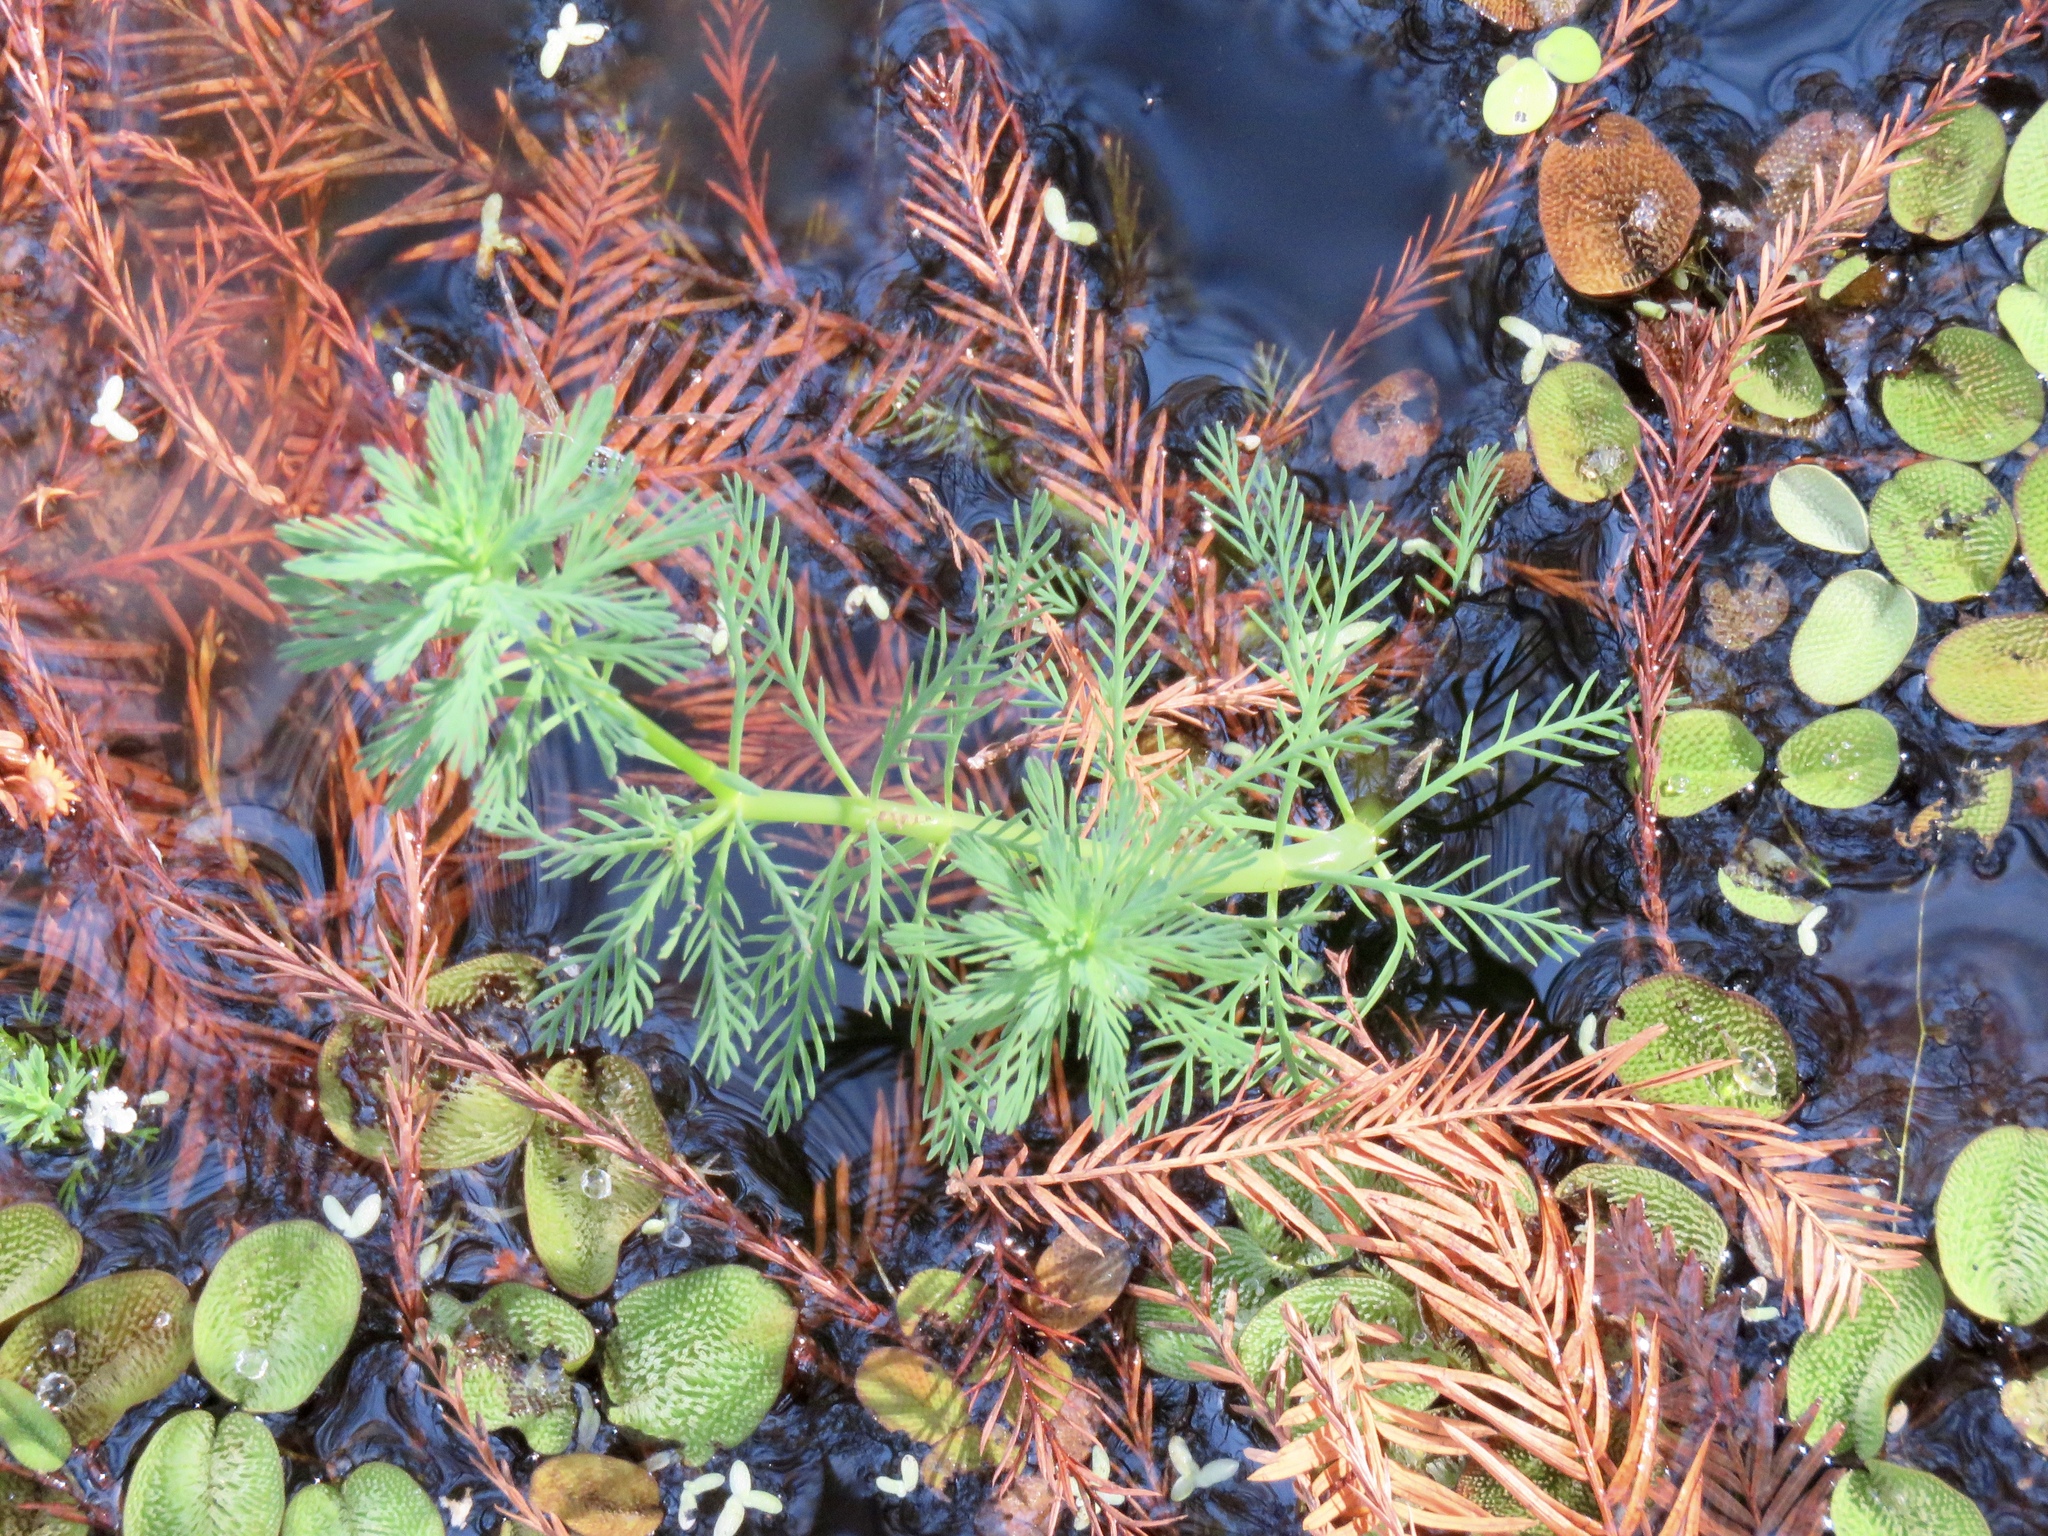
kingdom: Plantae
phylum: Tracheophyta
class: Magnoliopsida
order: Saxifragales
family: Haloragaceae
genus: Myriophyllum
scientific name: Myriophyllum aquaticum
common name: Parrot's feather
